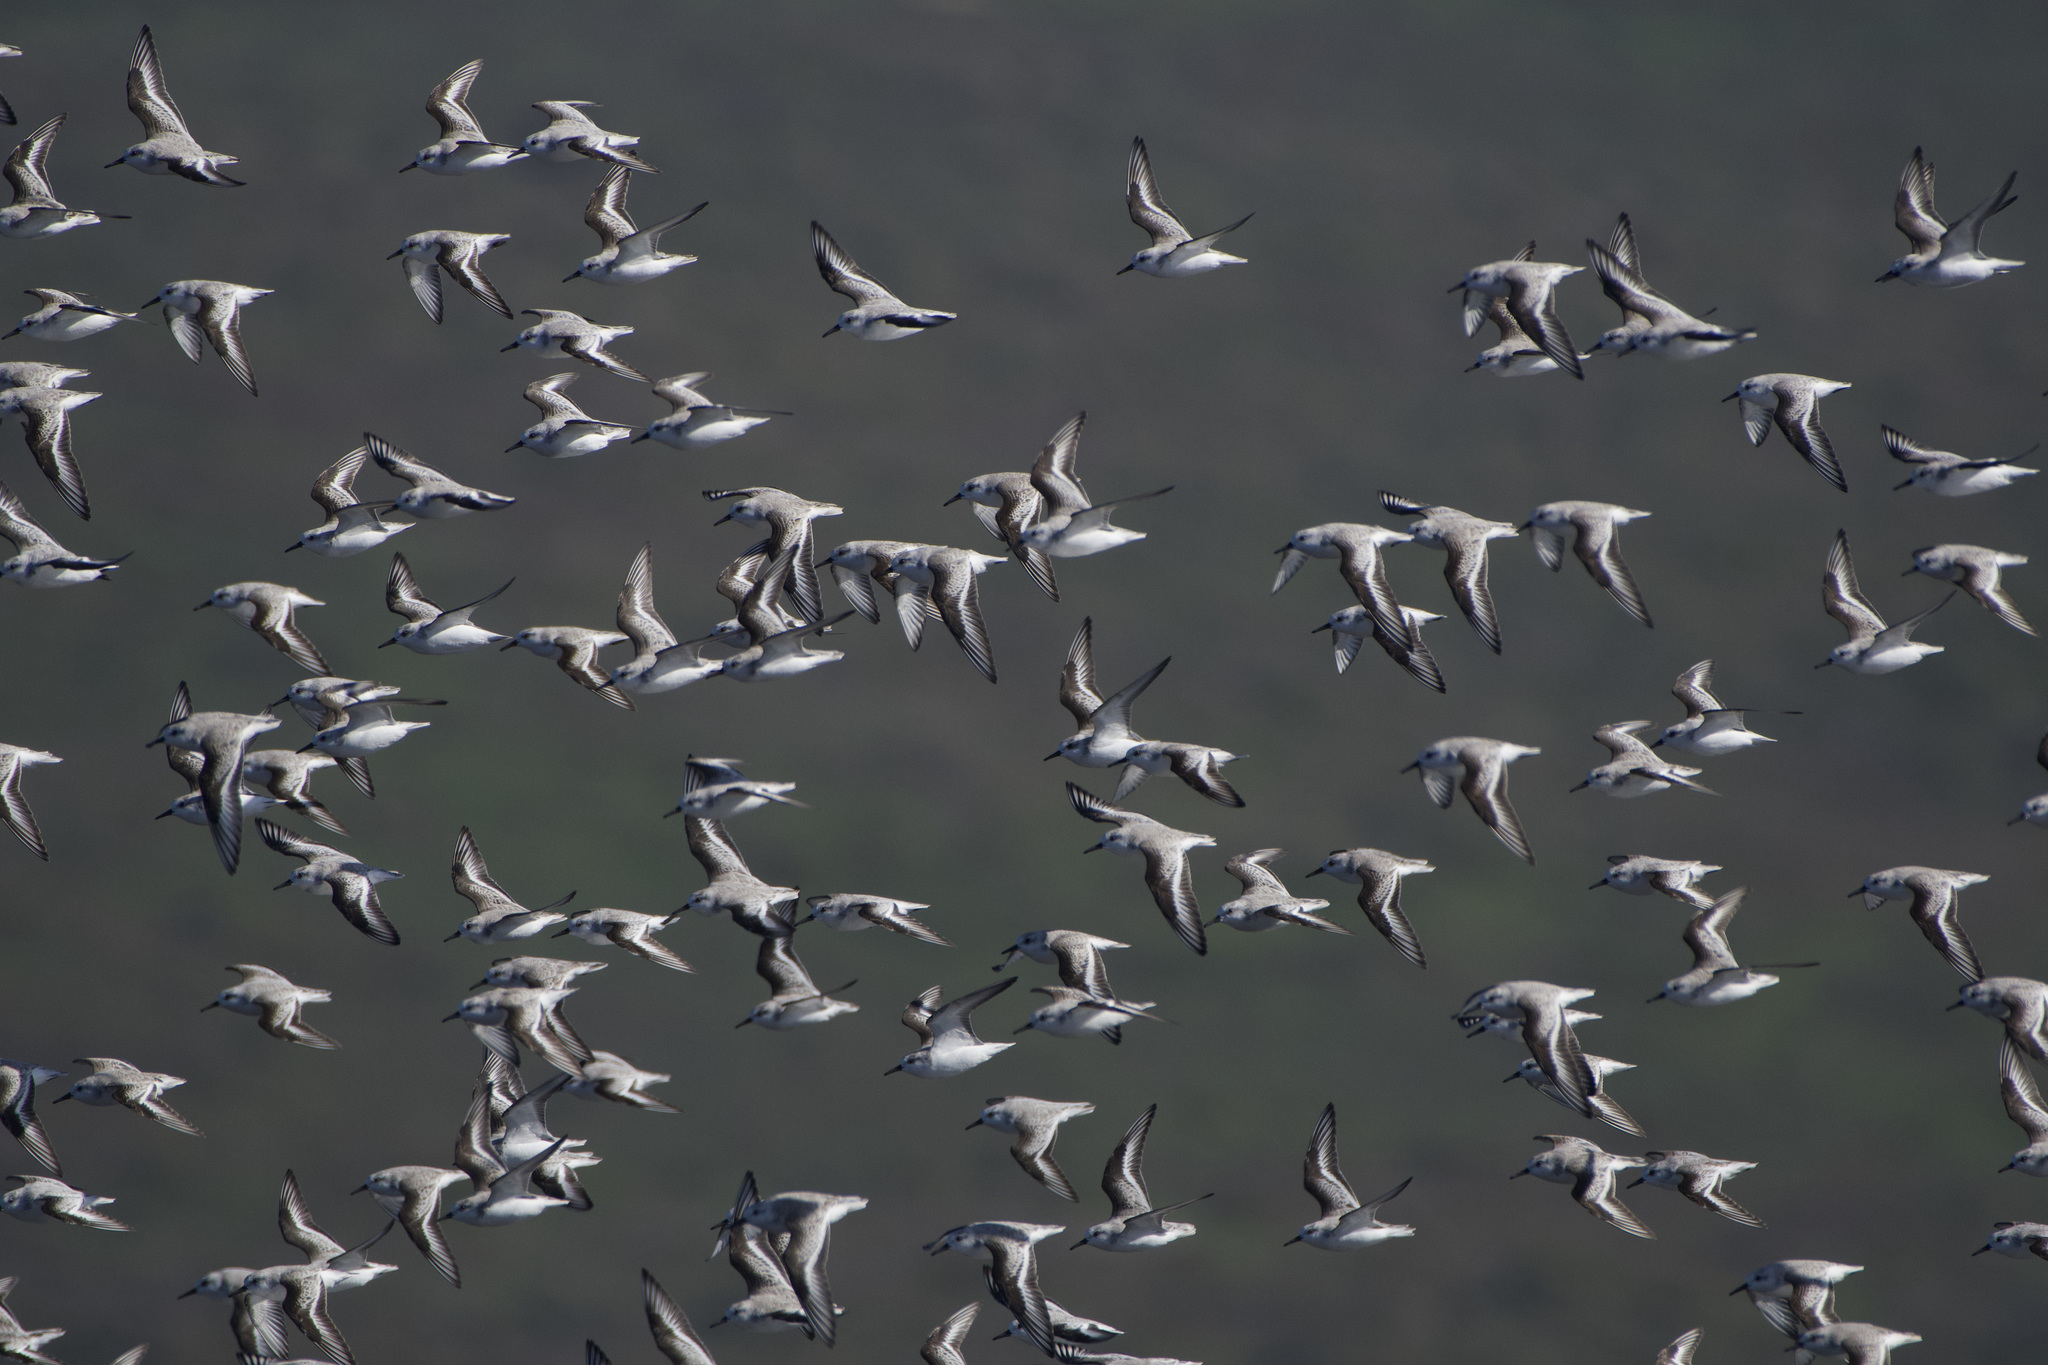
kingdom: Animalia
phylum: Chordata
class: Aves
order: Charadriiformes
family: Scolopacidae
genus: Calidris
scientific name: Calidris alba
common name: Sanderling
